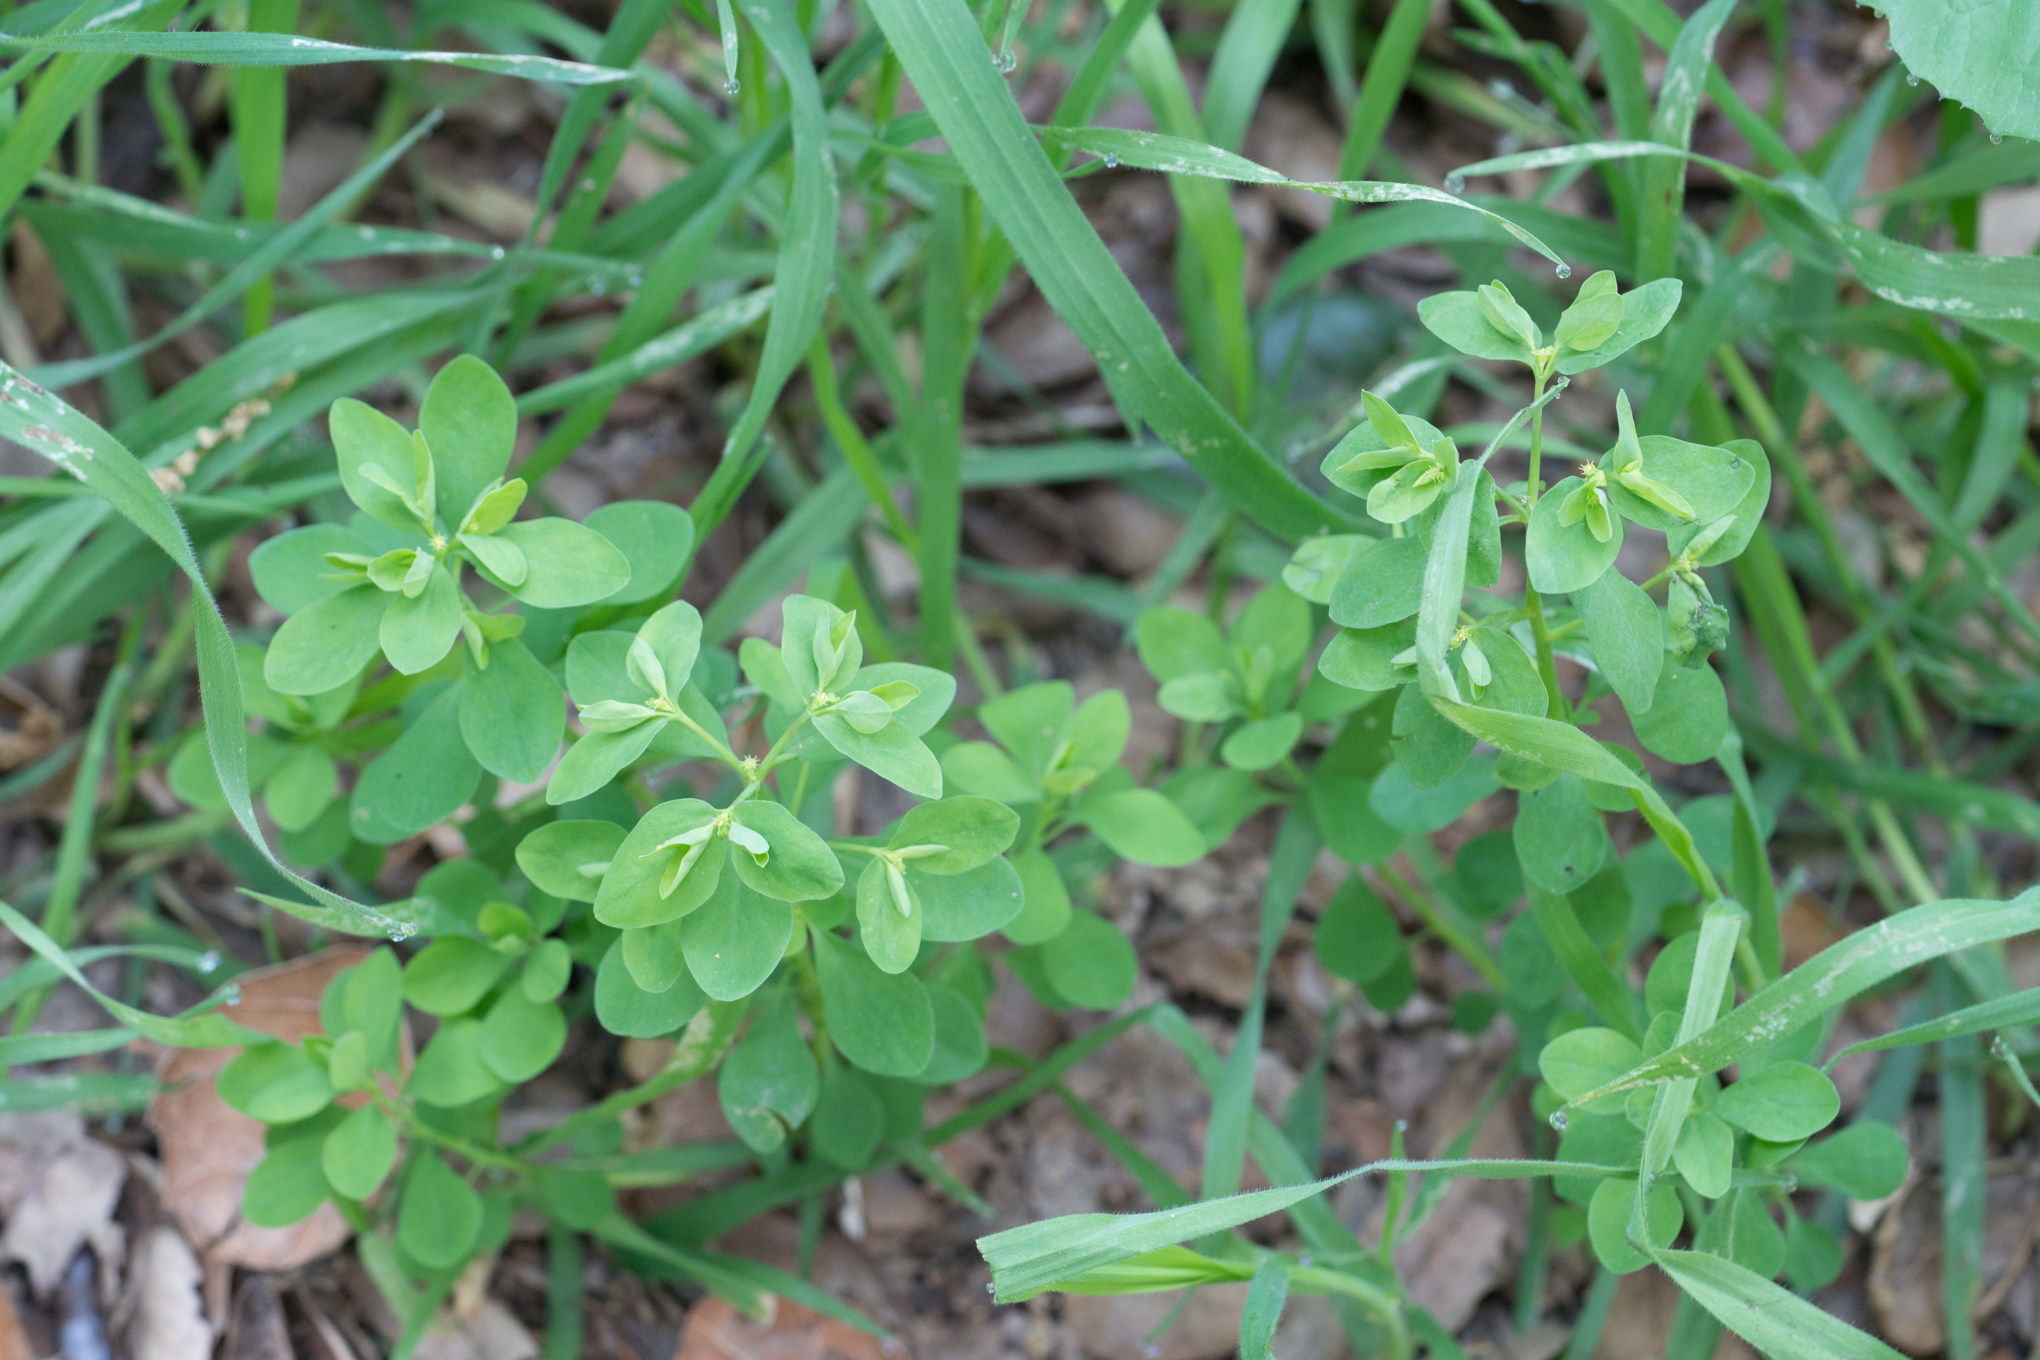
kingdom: Plantae
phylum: Tracheophyta
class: Magnoliopsida
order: Malpighiales
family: Euphorbiaceae
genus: Euphorbia
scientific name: Euphorbia peplus
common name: Petty spurge
